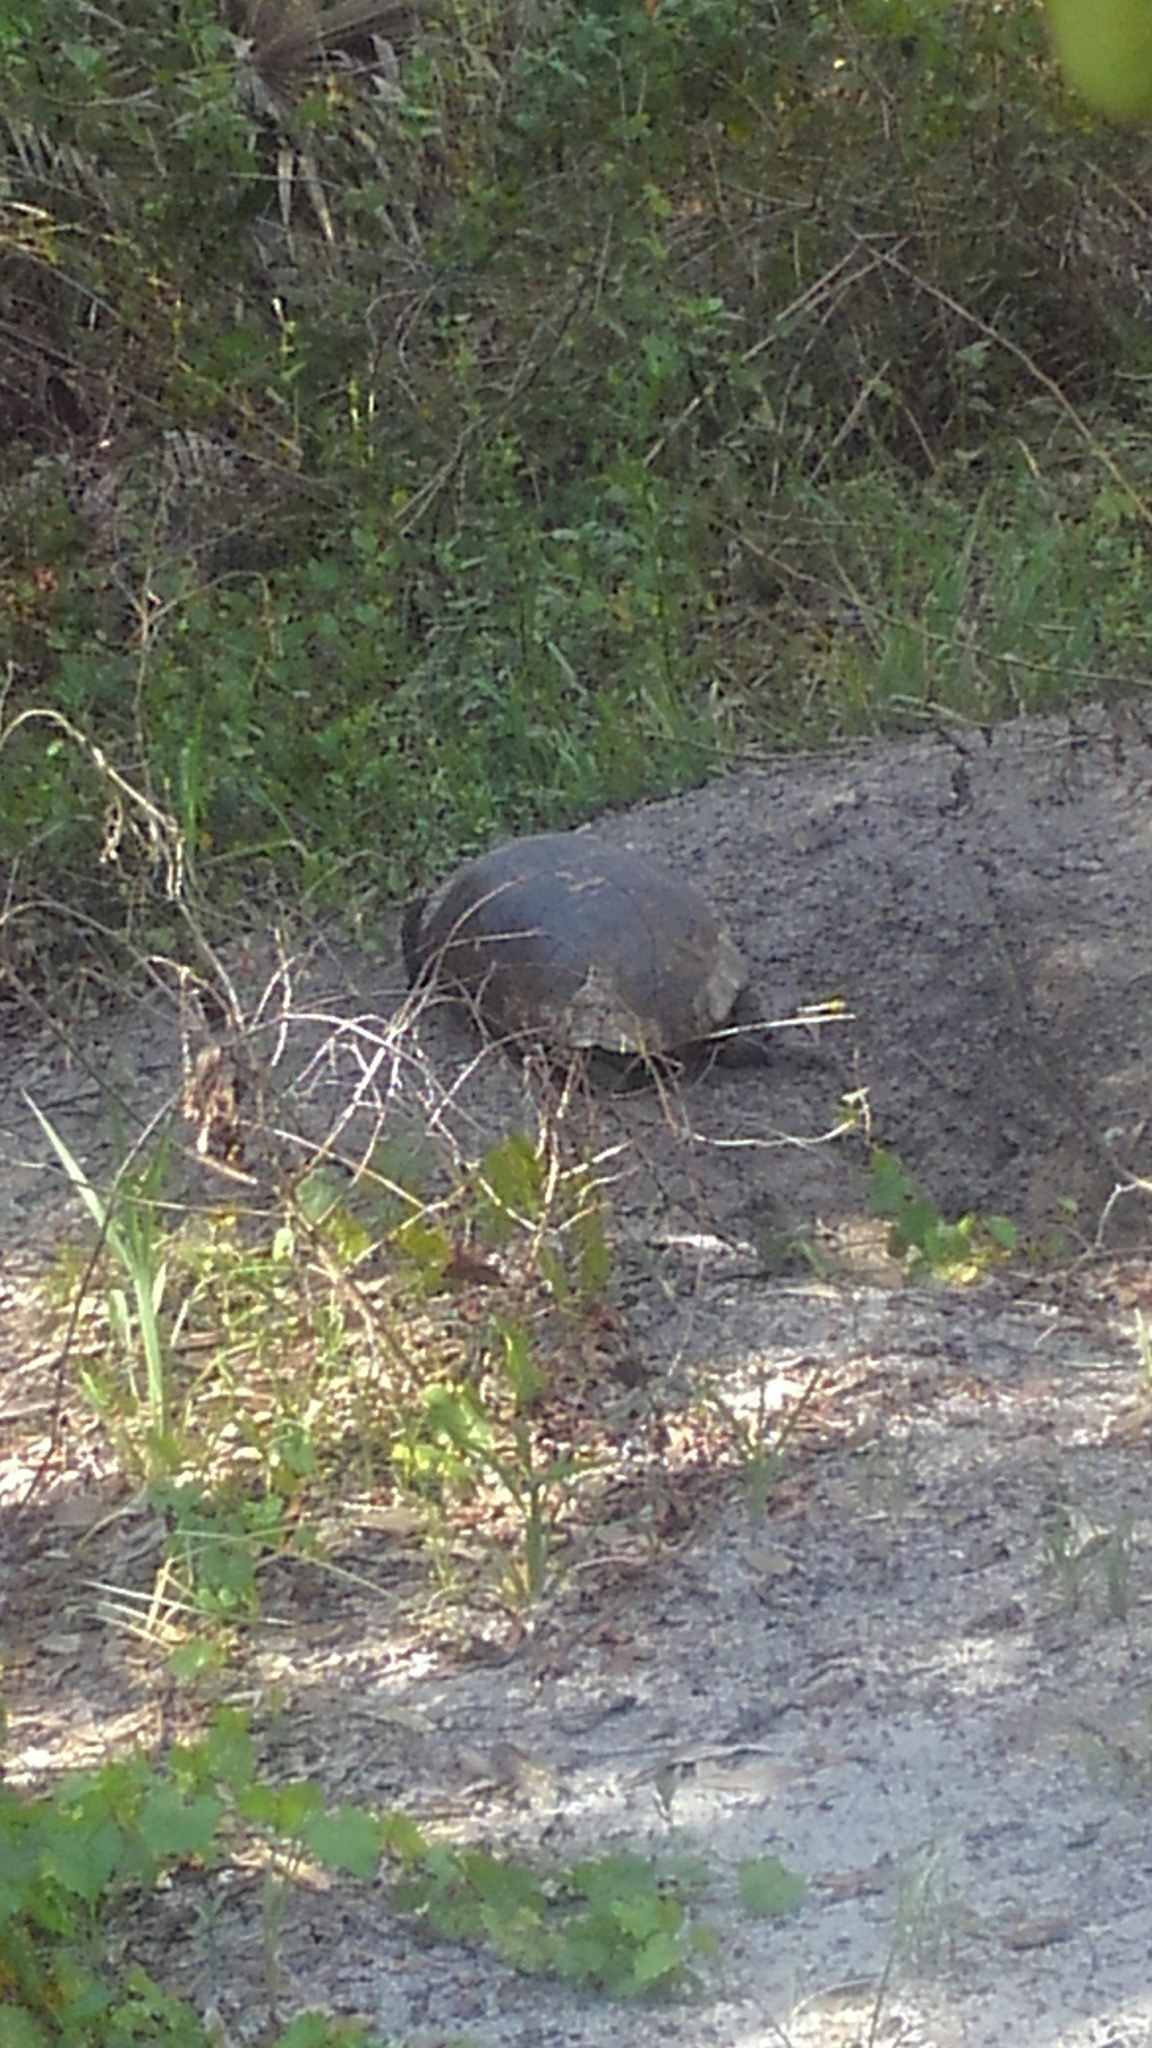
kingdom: Animalia
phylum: Chordata
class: Testudines
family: Testudinidae
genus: Gopherus
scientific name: Gopherus polyphemus
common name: Florida gopher tortoise
